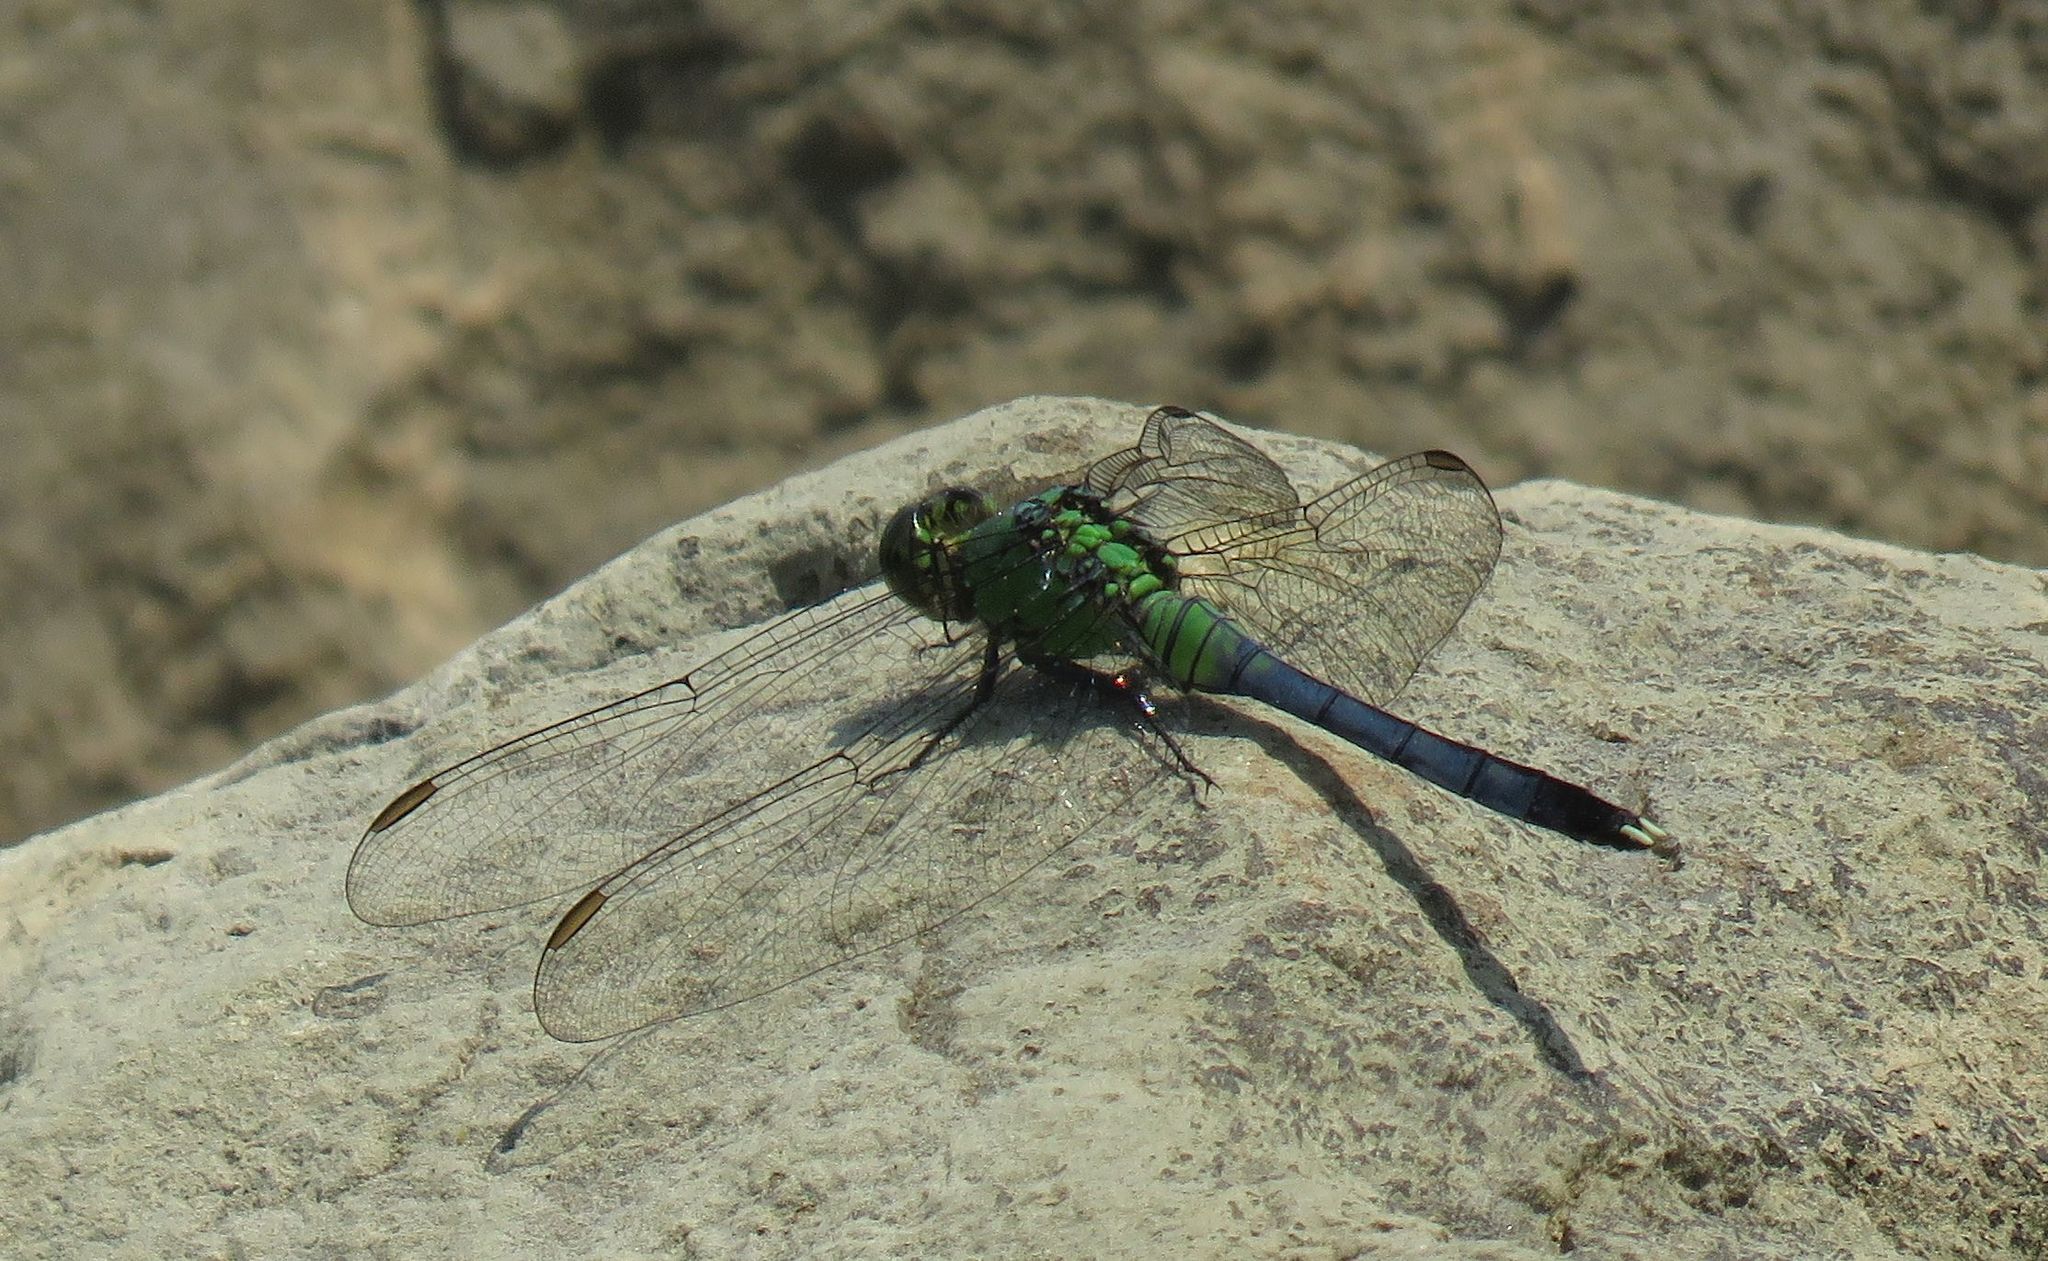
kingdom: Animalia
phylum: Arthropoda
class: Insecta
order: Odonata
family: Libellulidae
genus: Erythemis
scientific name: Erythemis simplicicollis
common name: Eastern pondhawk
